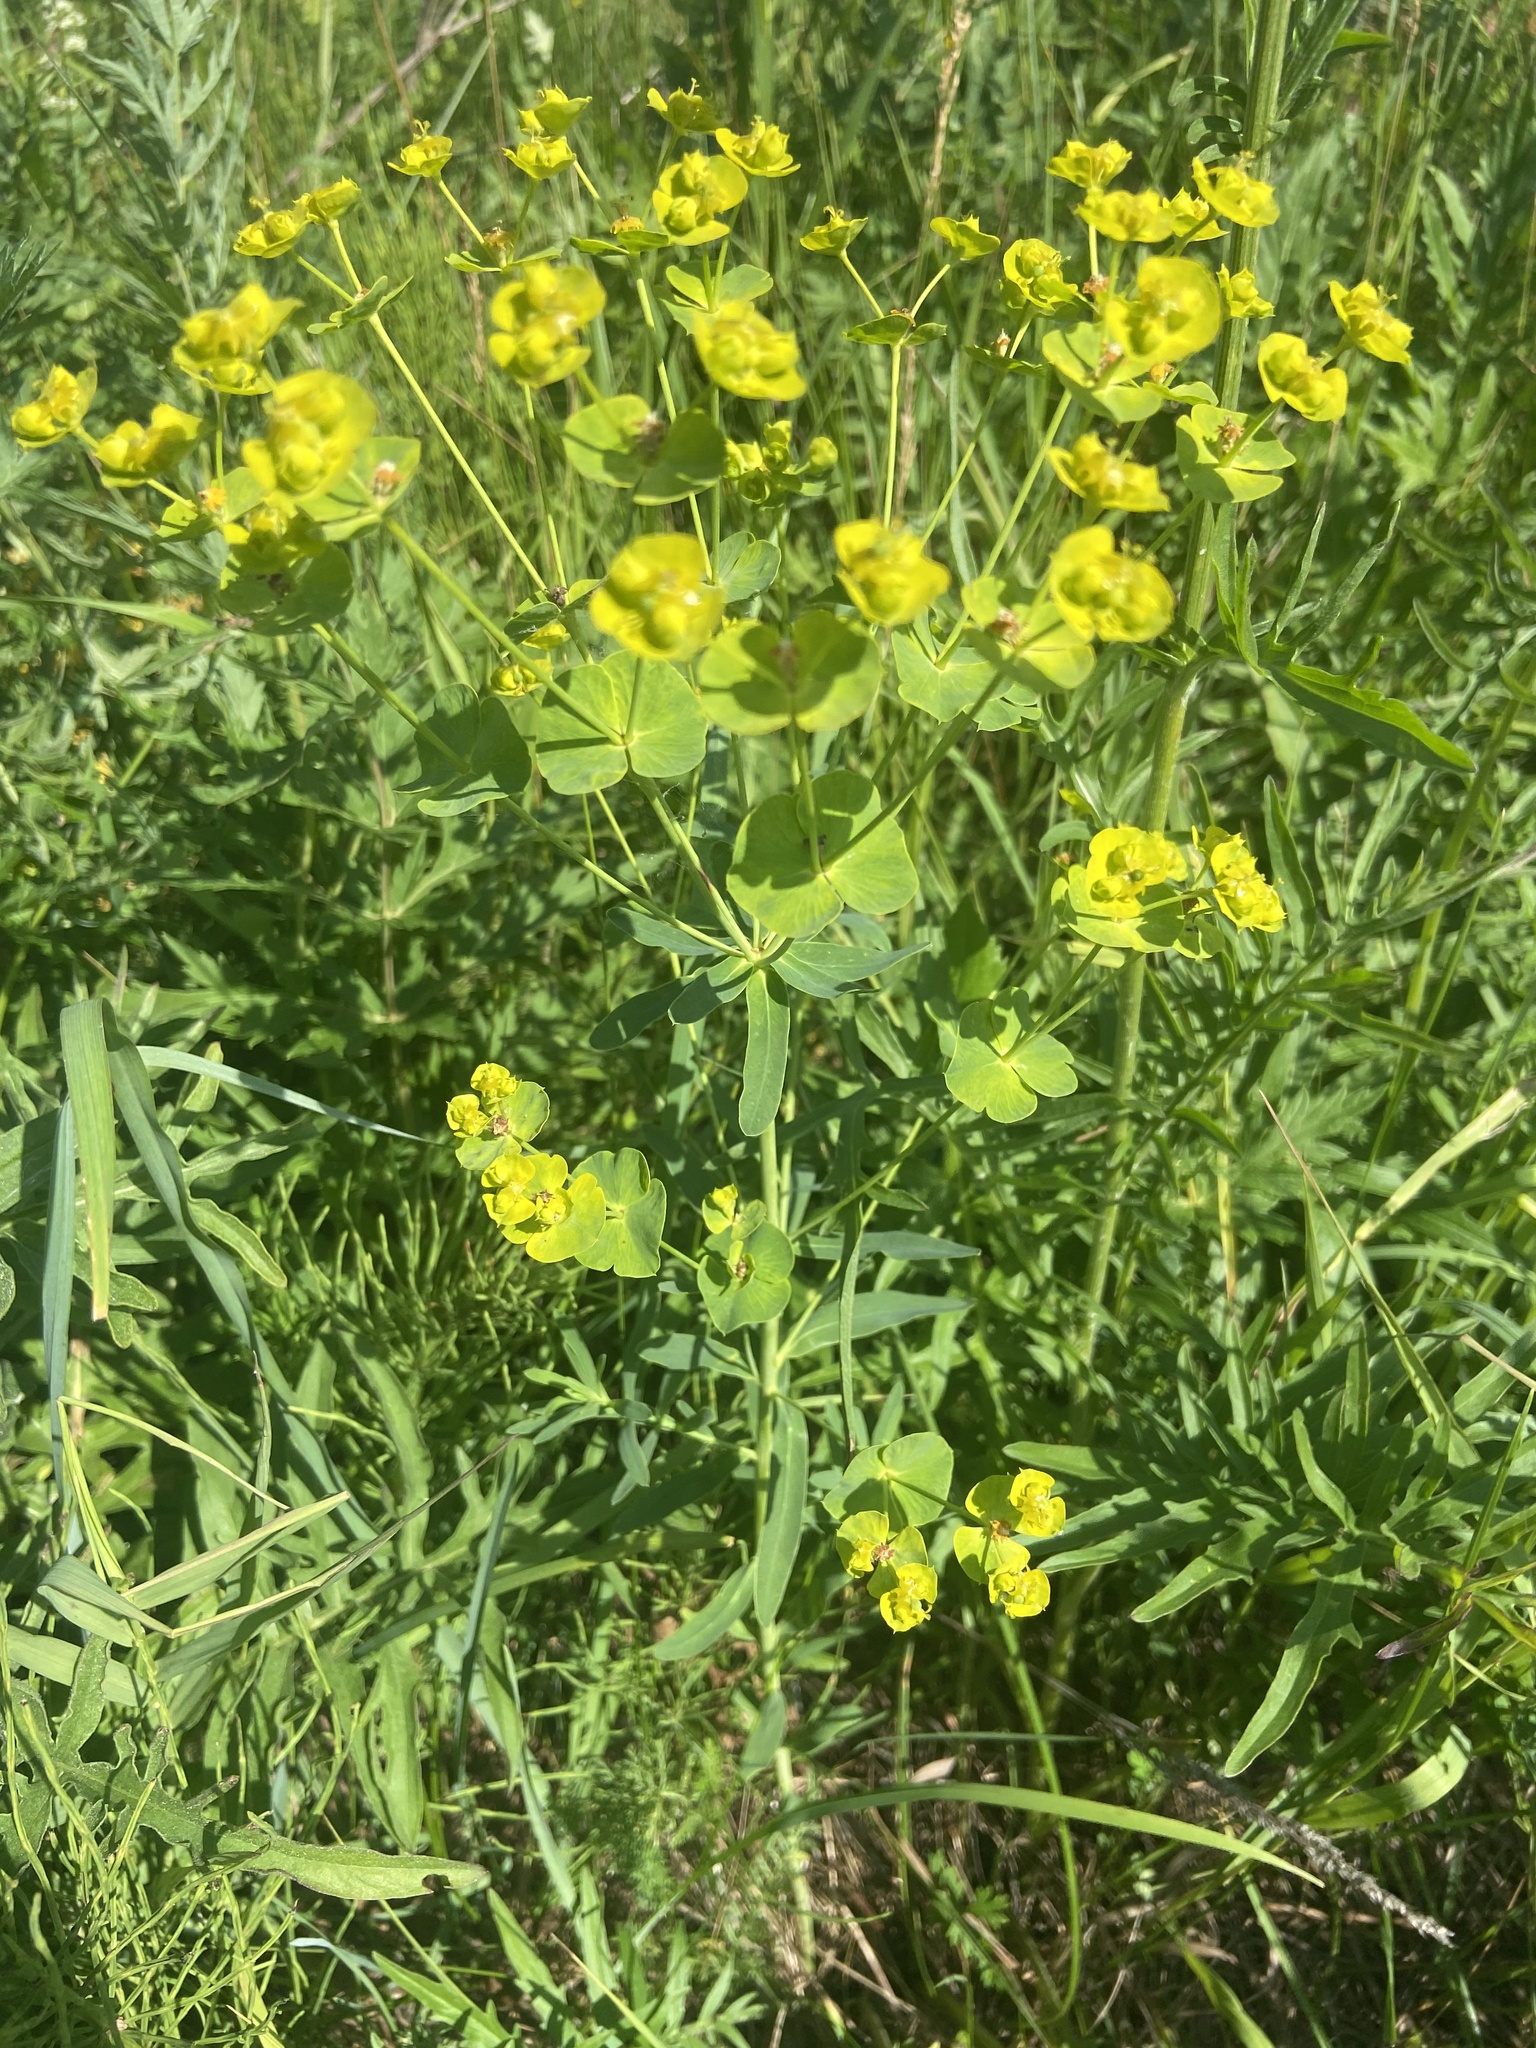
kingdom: Plantae
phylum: Tracheophyta
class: Magnoliopsida
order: Malpighiales
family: Euphorbiaceae
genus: Euphorbia
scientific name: Euphorbia virgata
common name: Leafy spurge
